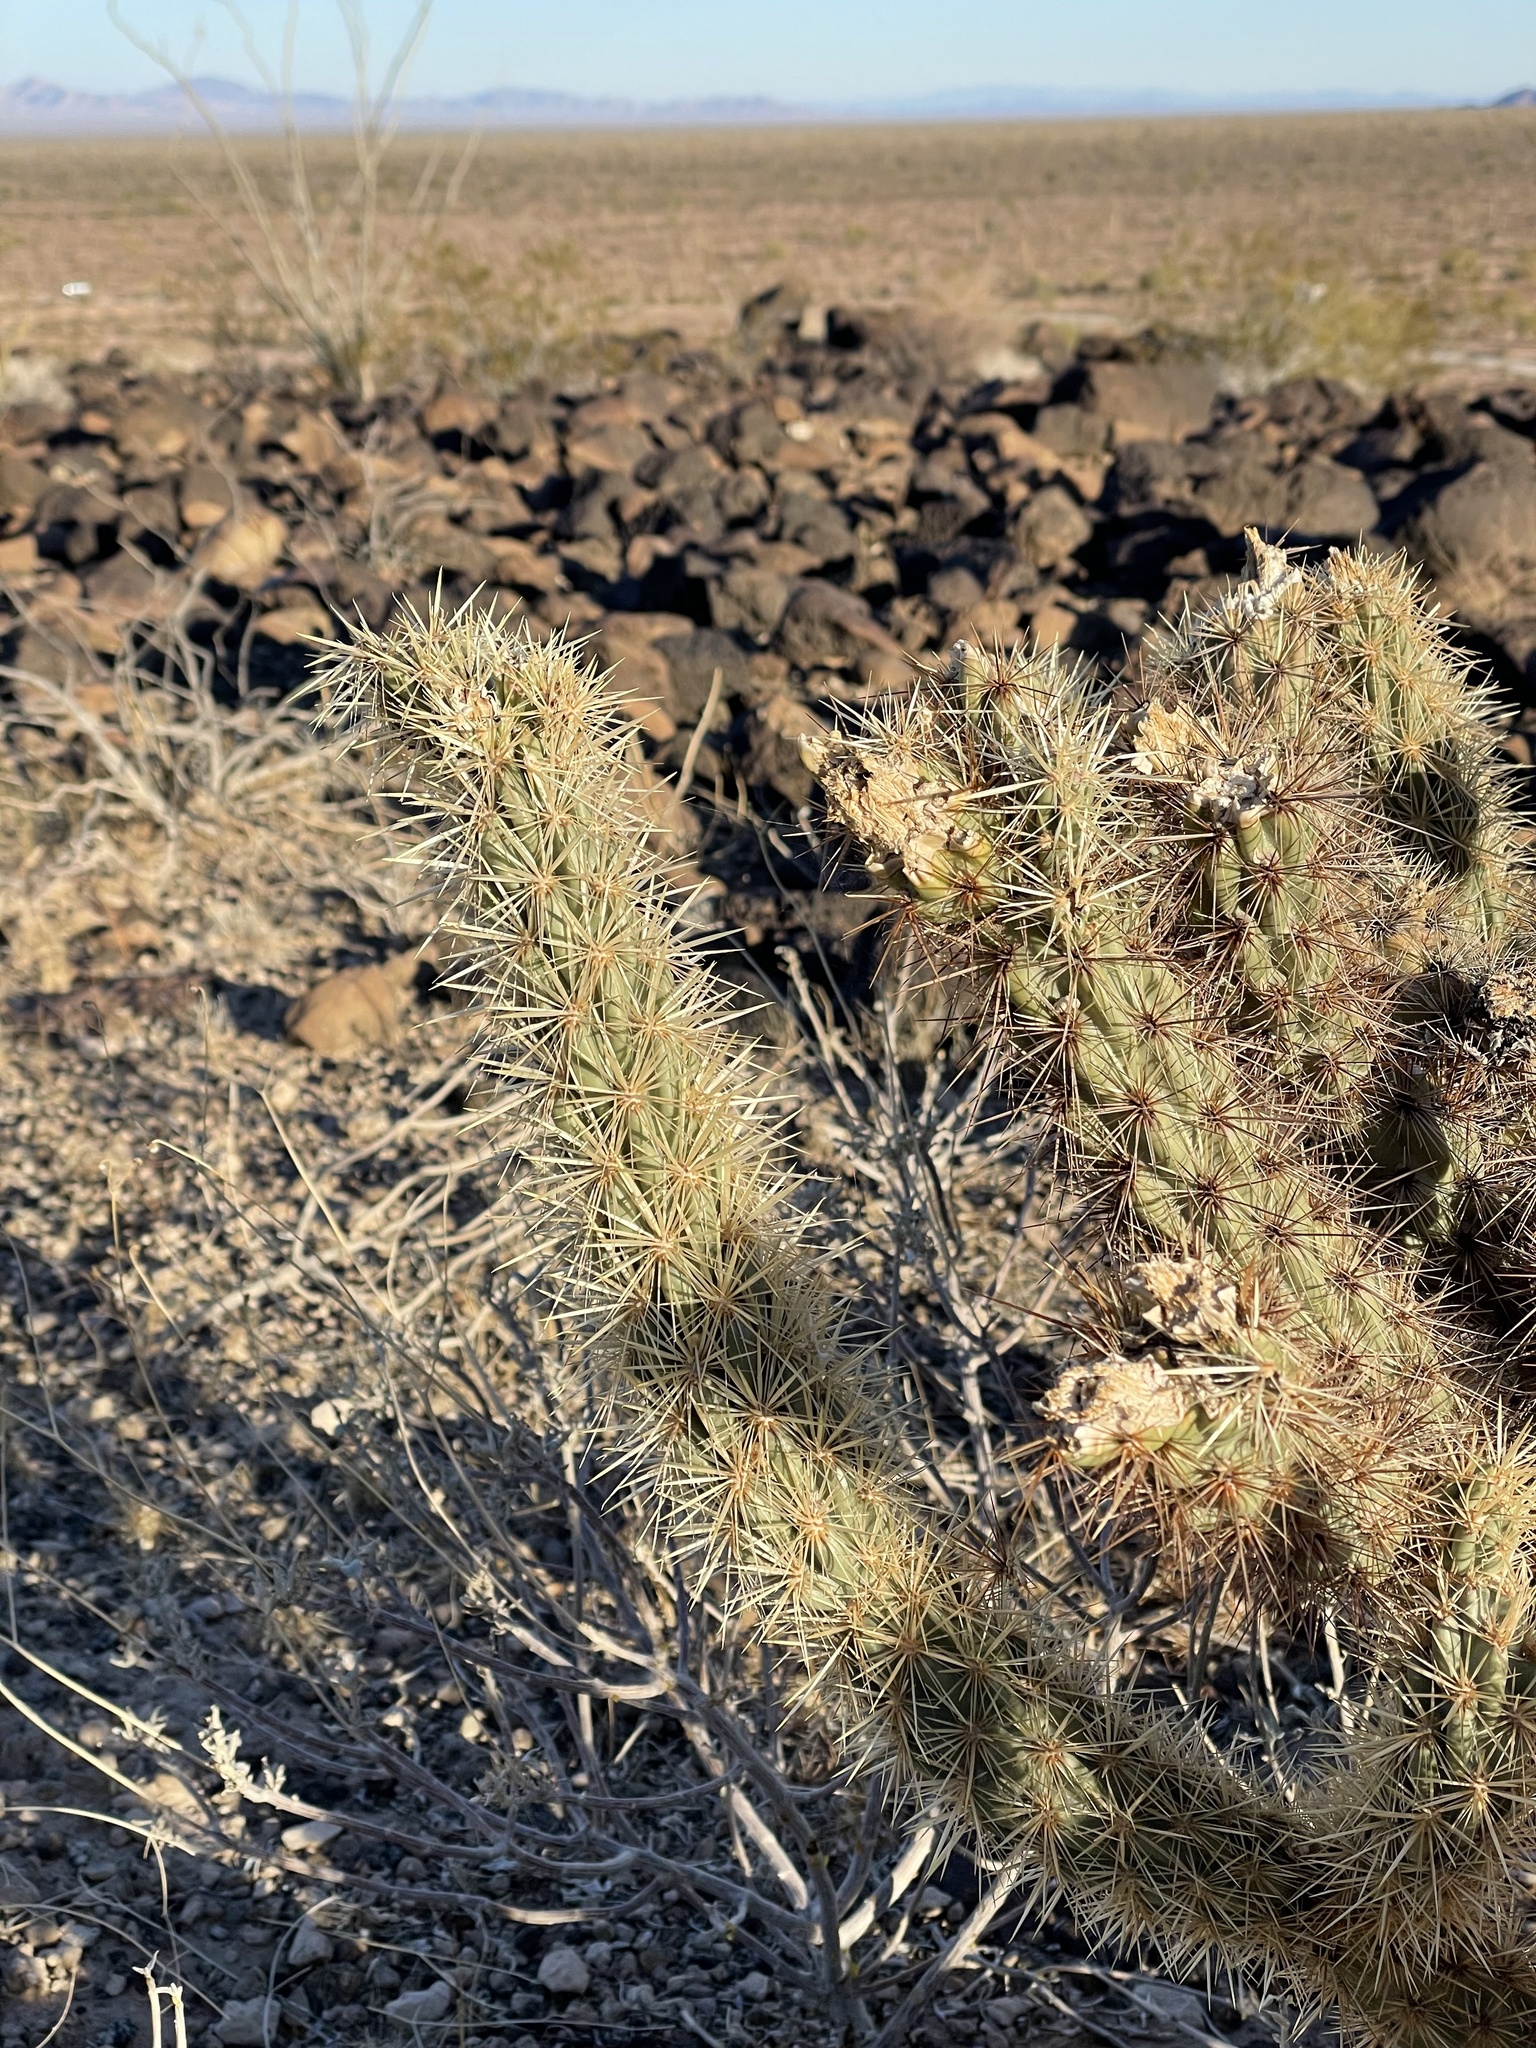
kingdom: Plantae
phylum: Tracheophyta
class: Magnoliopsida
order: Caryophyllales
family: Cactaceae
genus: Cylindropuntia
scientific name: Cylindropuntia acanthocarpa
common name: Buckhorn cholla
